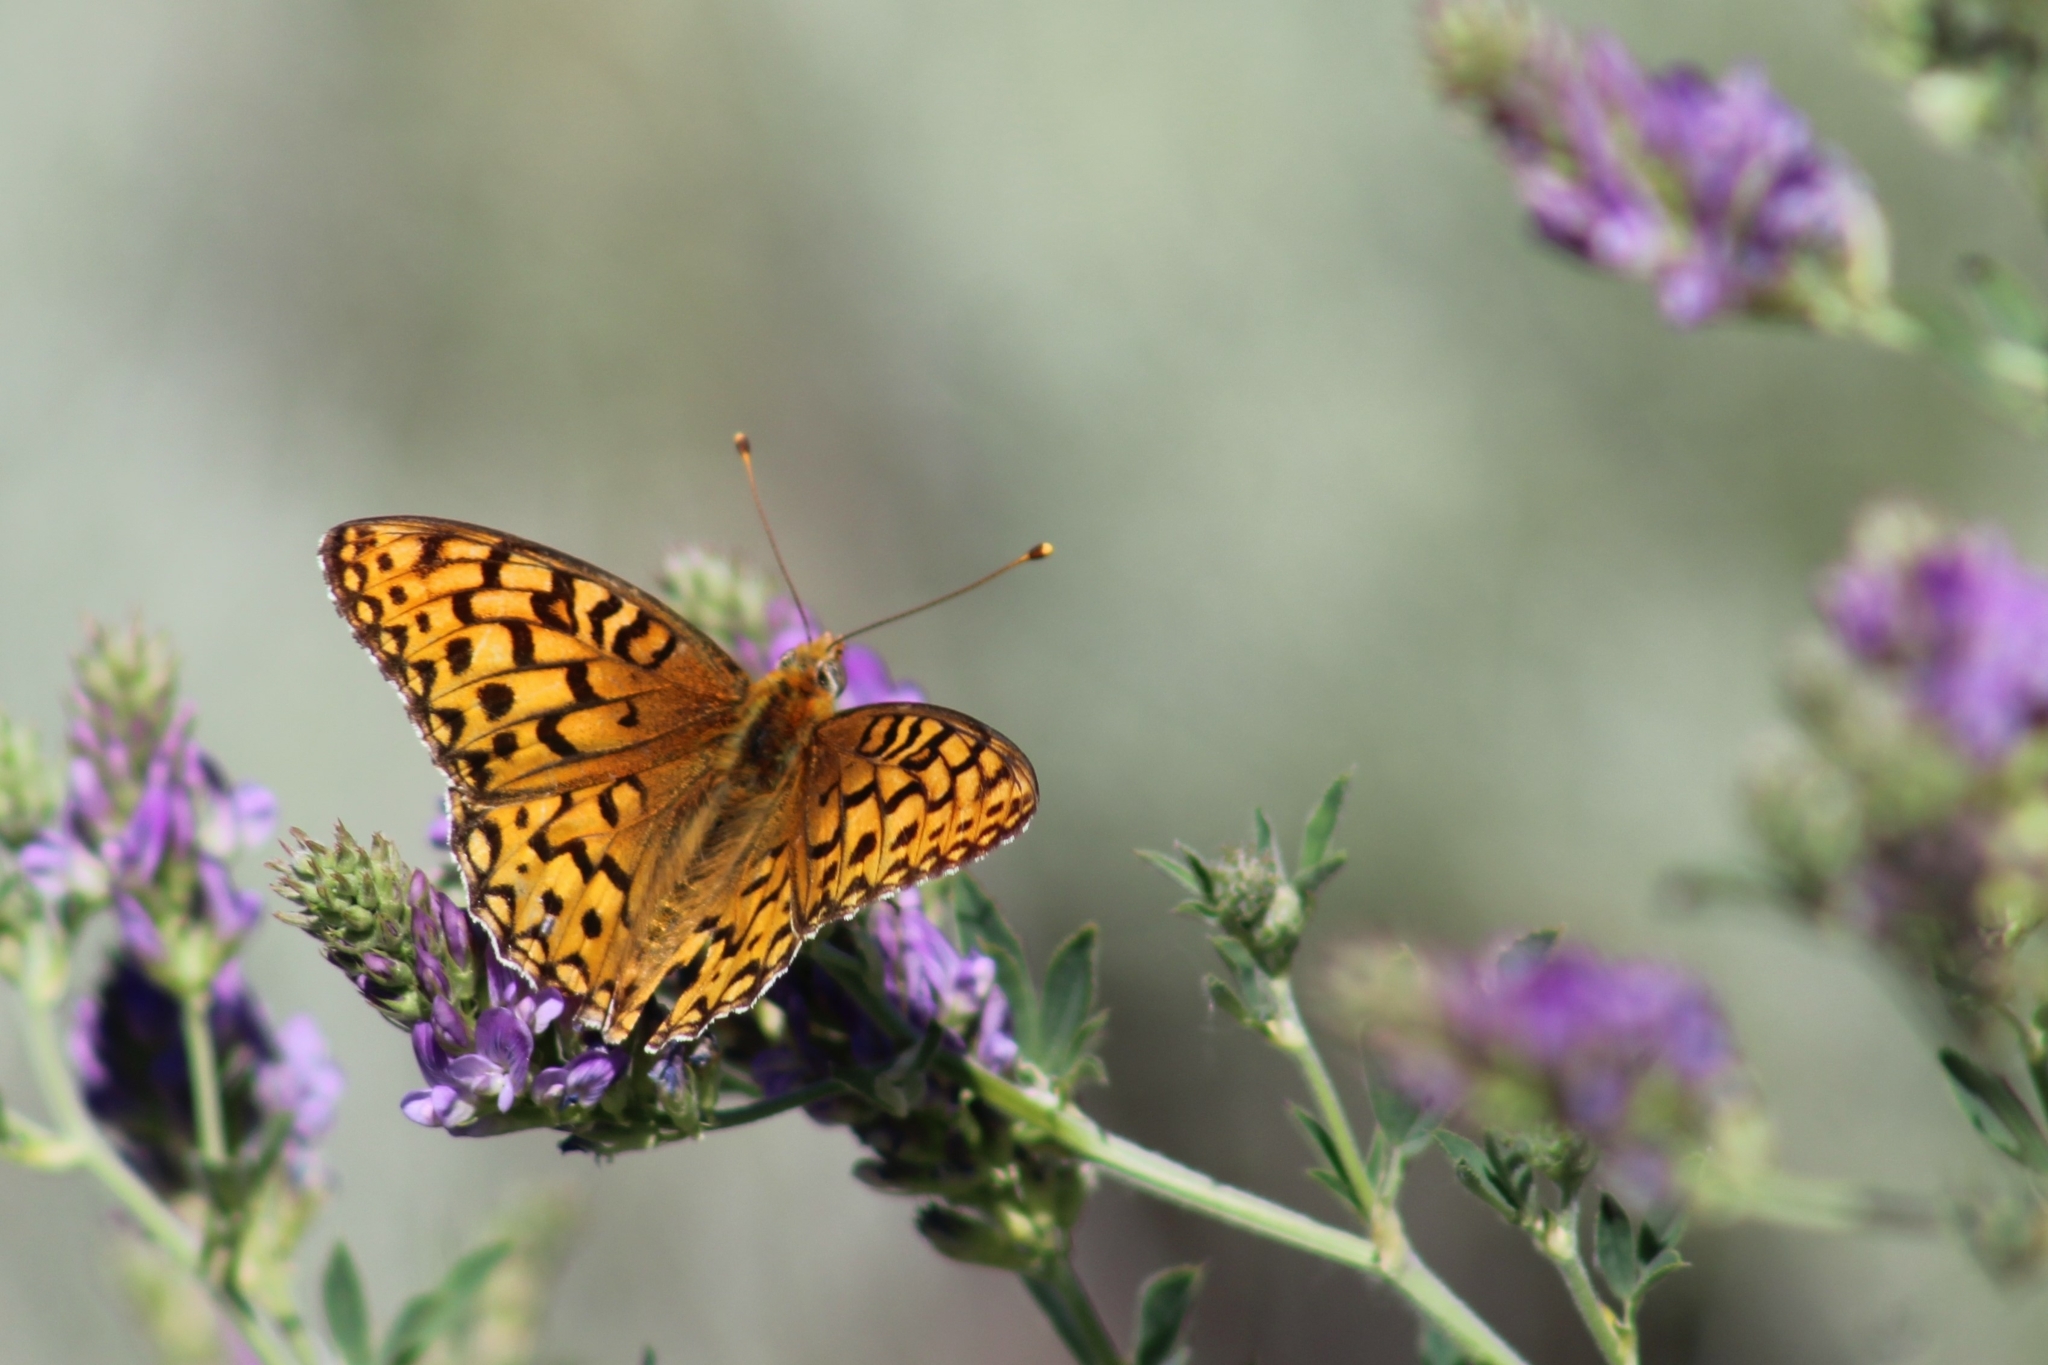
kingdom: Animalia
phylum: Arthropoda
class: Insecta
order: Lepidoptera
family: Nymphalidae
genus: Speyeria
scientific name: Speyeria callippe
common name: Callippe fritillary
